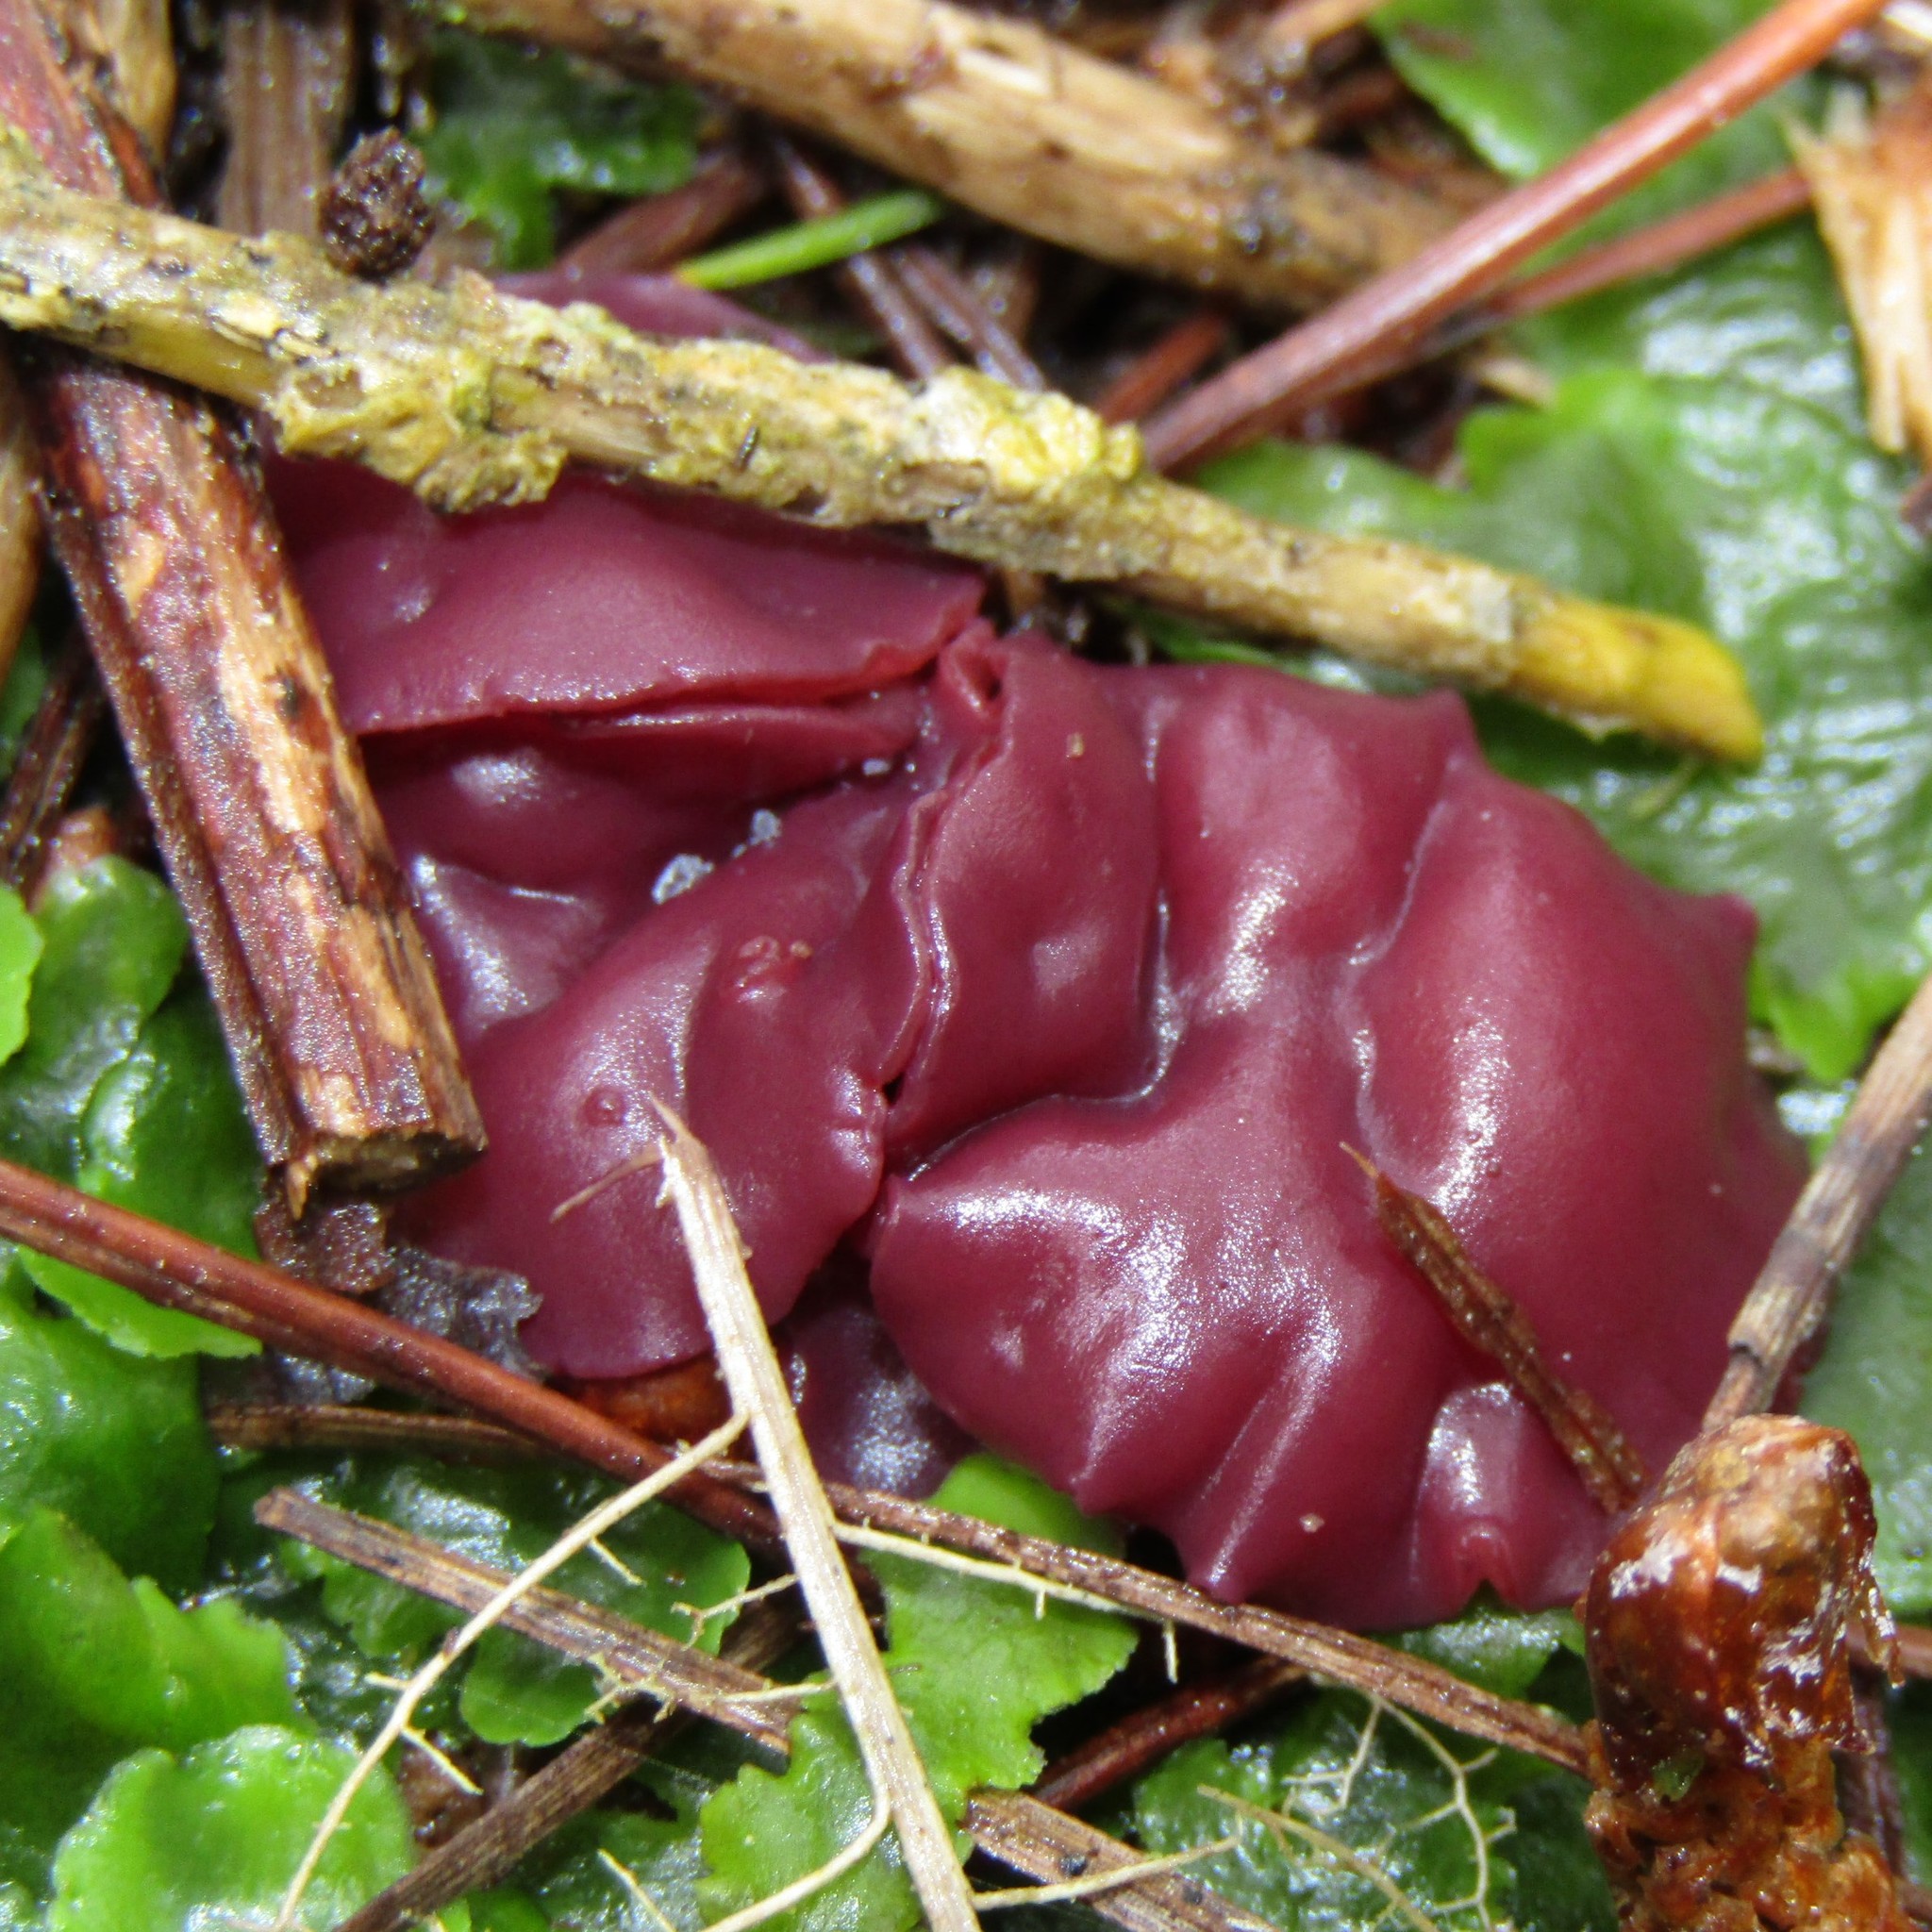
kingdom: Fungi
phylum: Ascomycota
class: Leotiomycetes
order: Helotiales
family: Gelatinodiscaceae
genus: Ascocoryne
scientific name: Ascocoryne sarcoides
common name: Purple jellydisc
